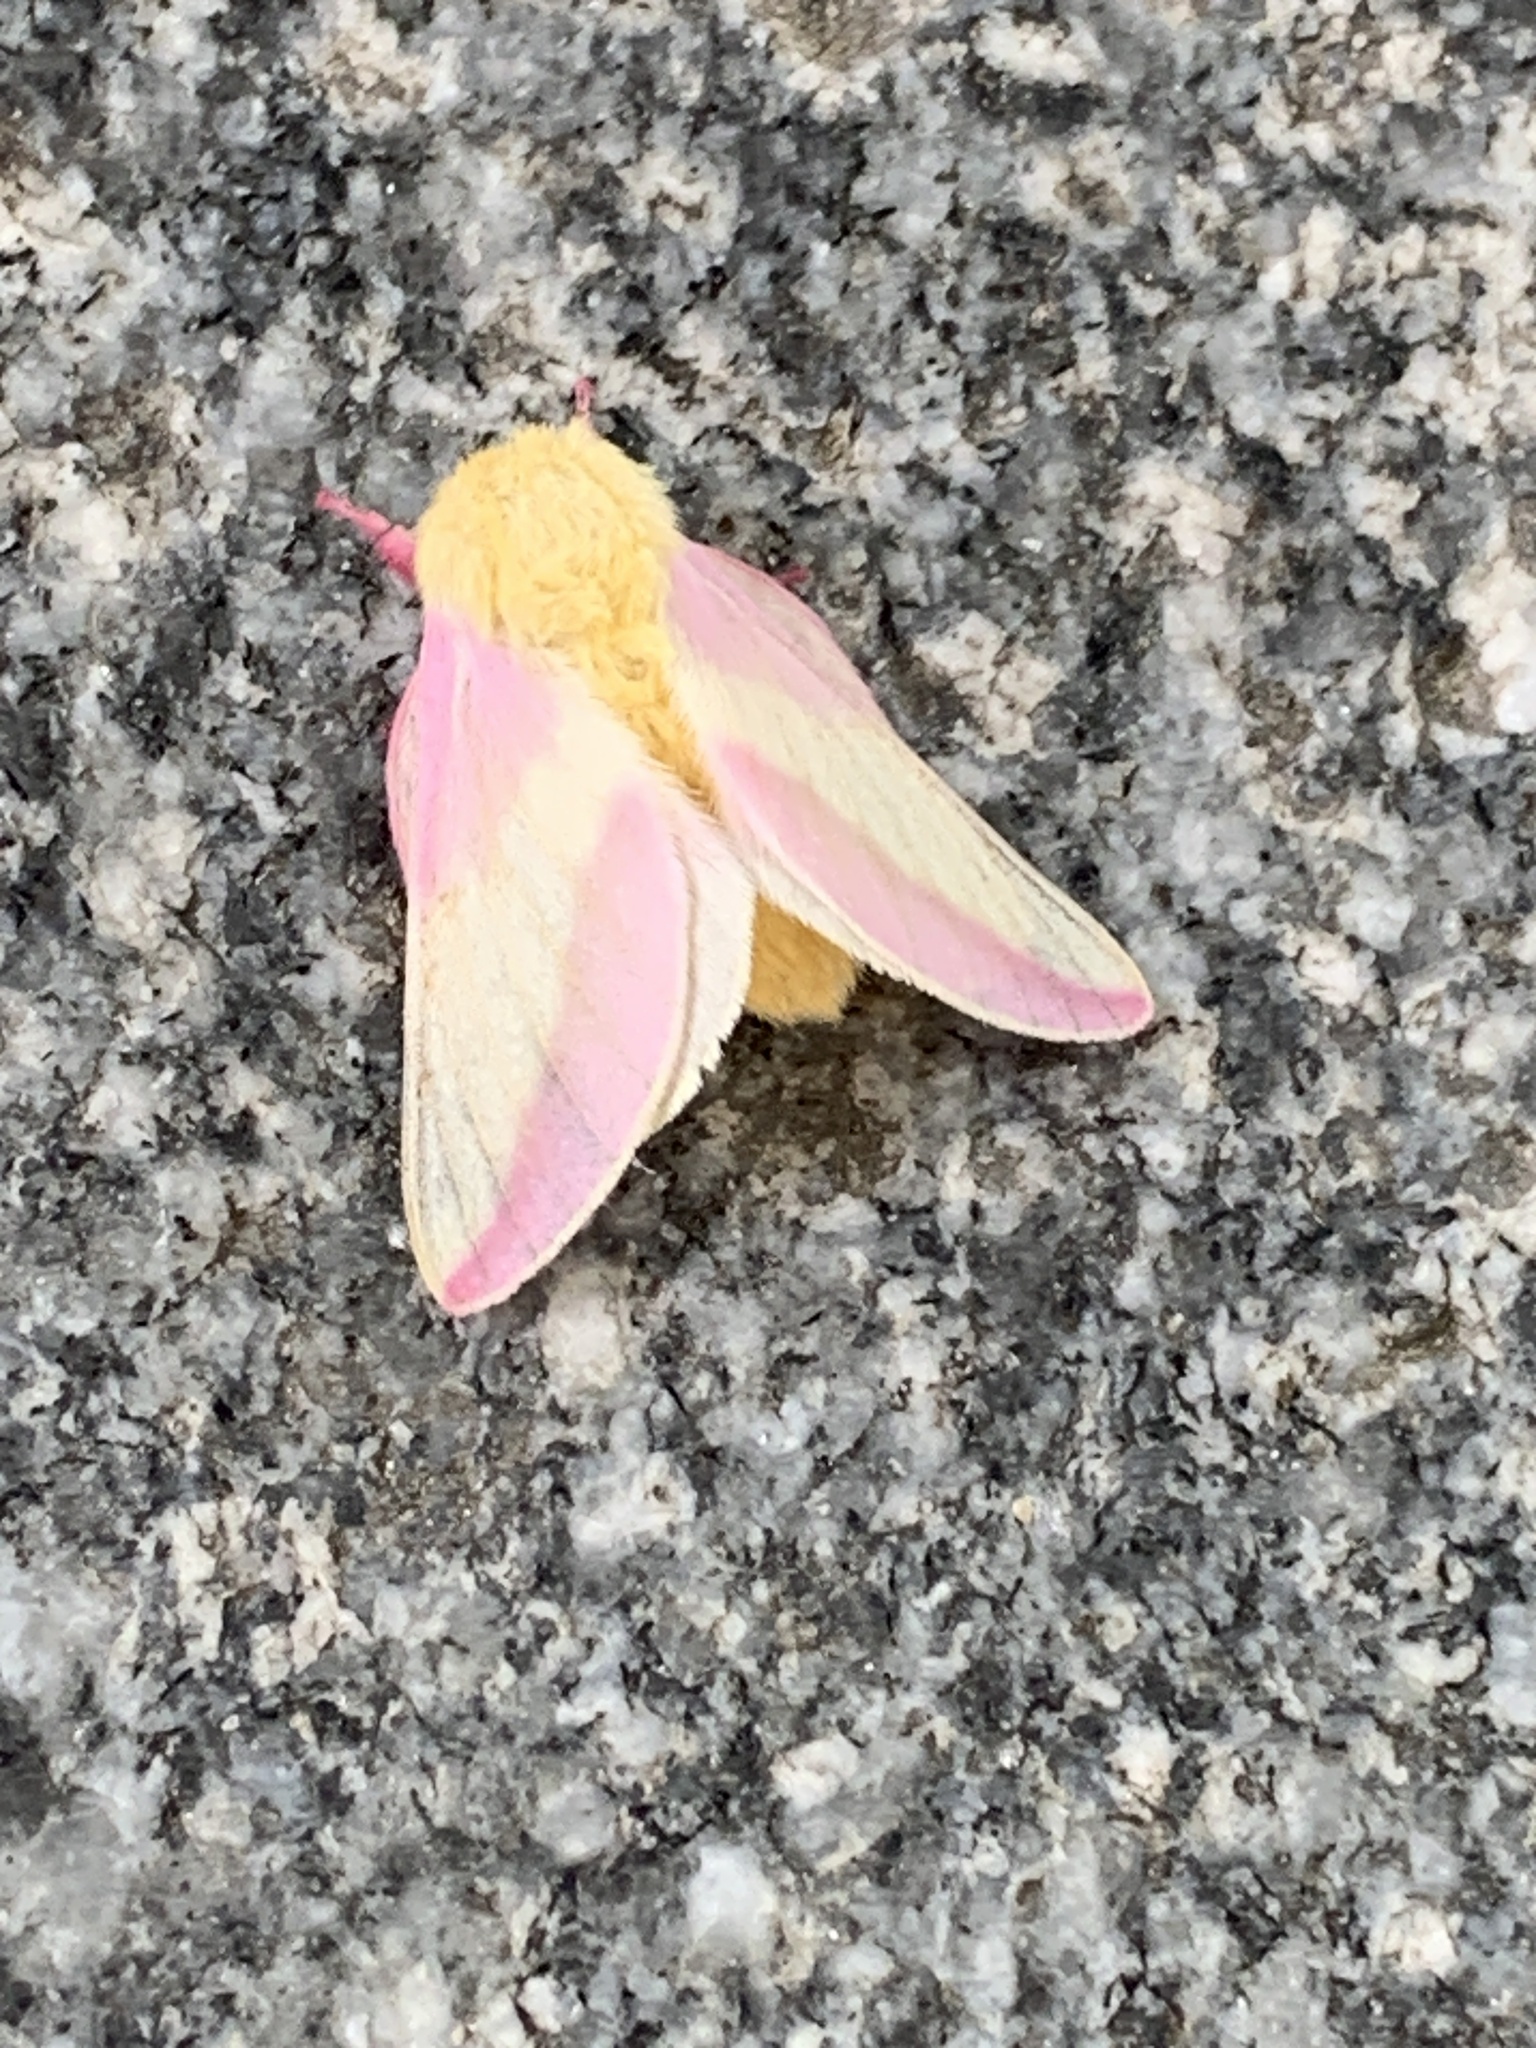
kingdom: Animalia
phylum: Arthropoda
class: Insecta
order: Lepidoptera
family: Saturniidae
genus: Dryocampa
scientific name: Dryocampa rubicunda
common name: Rosy maple moth
